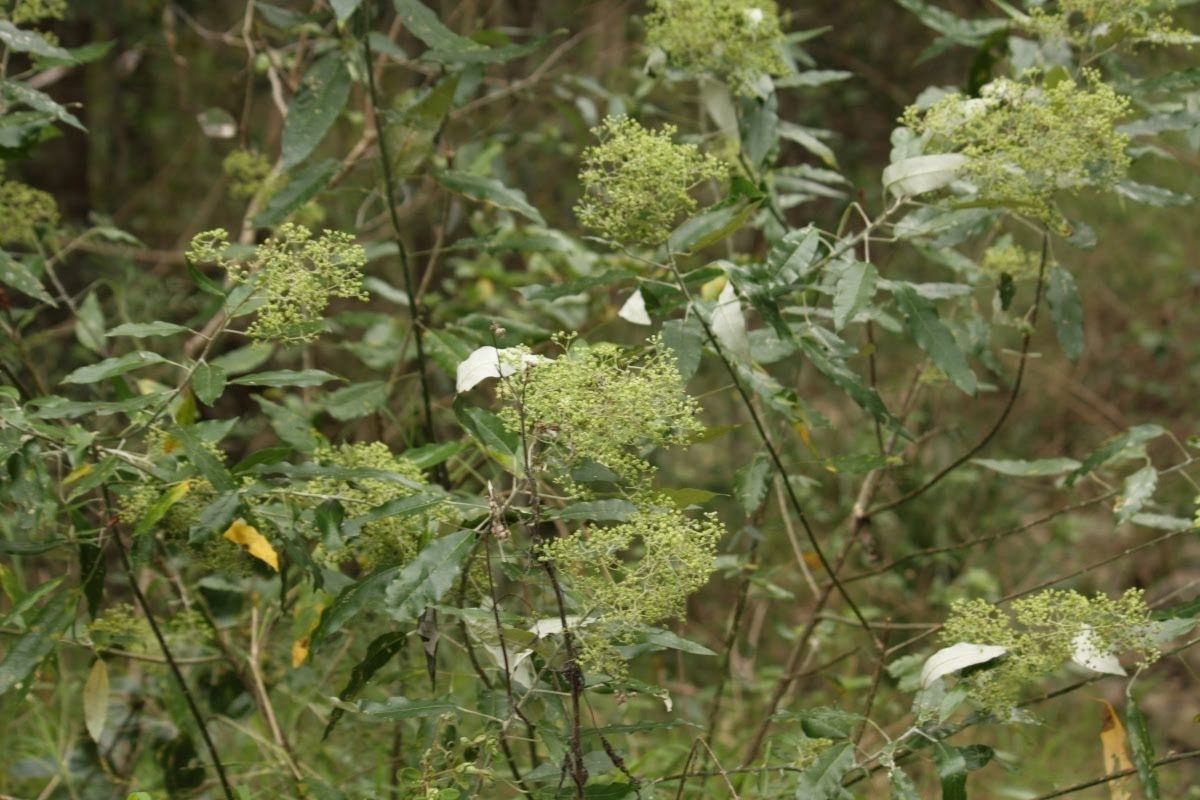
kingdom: Plantae
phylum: Tracheophyta
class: Magnoliopsida
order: Apiales
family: Araliaceae
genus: Astrotricha
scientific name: Astrotricha latifolia
